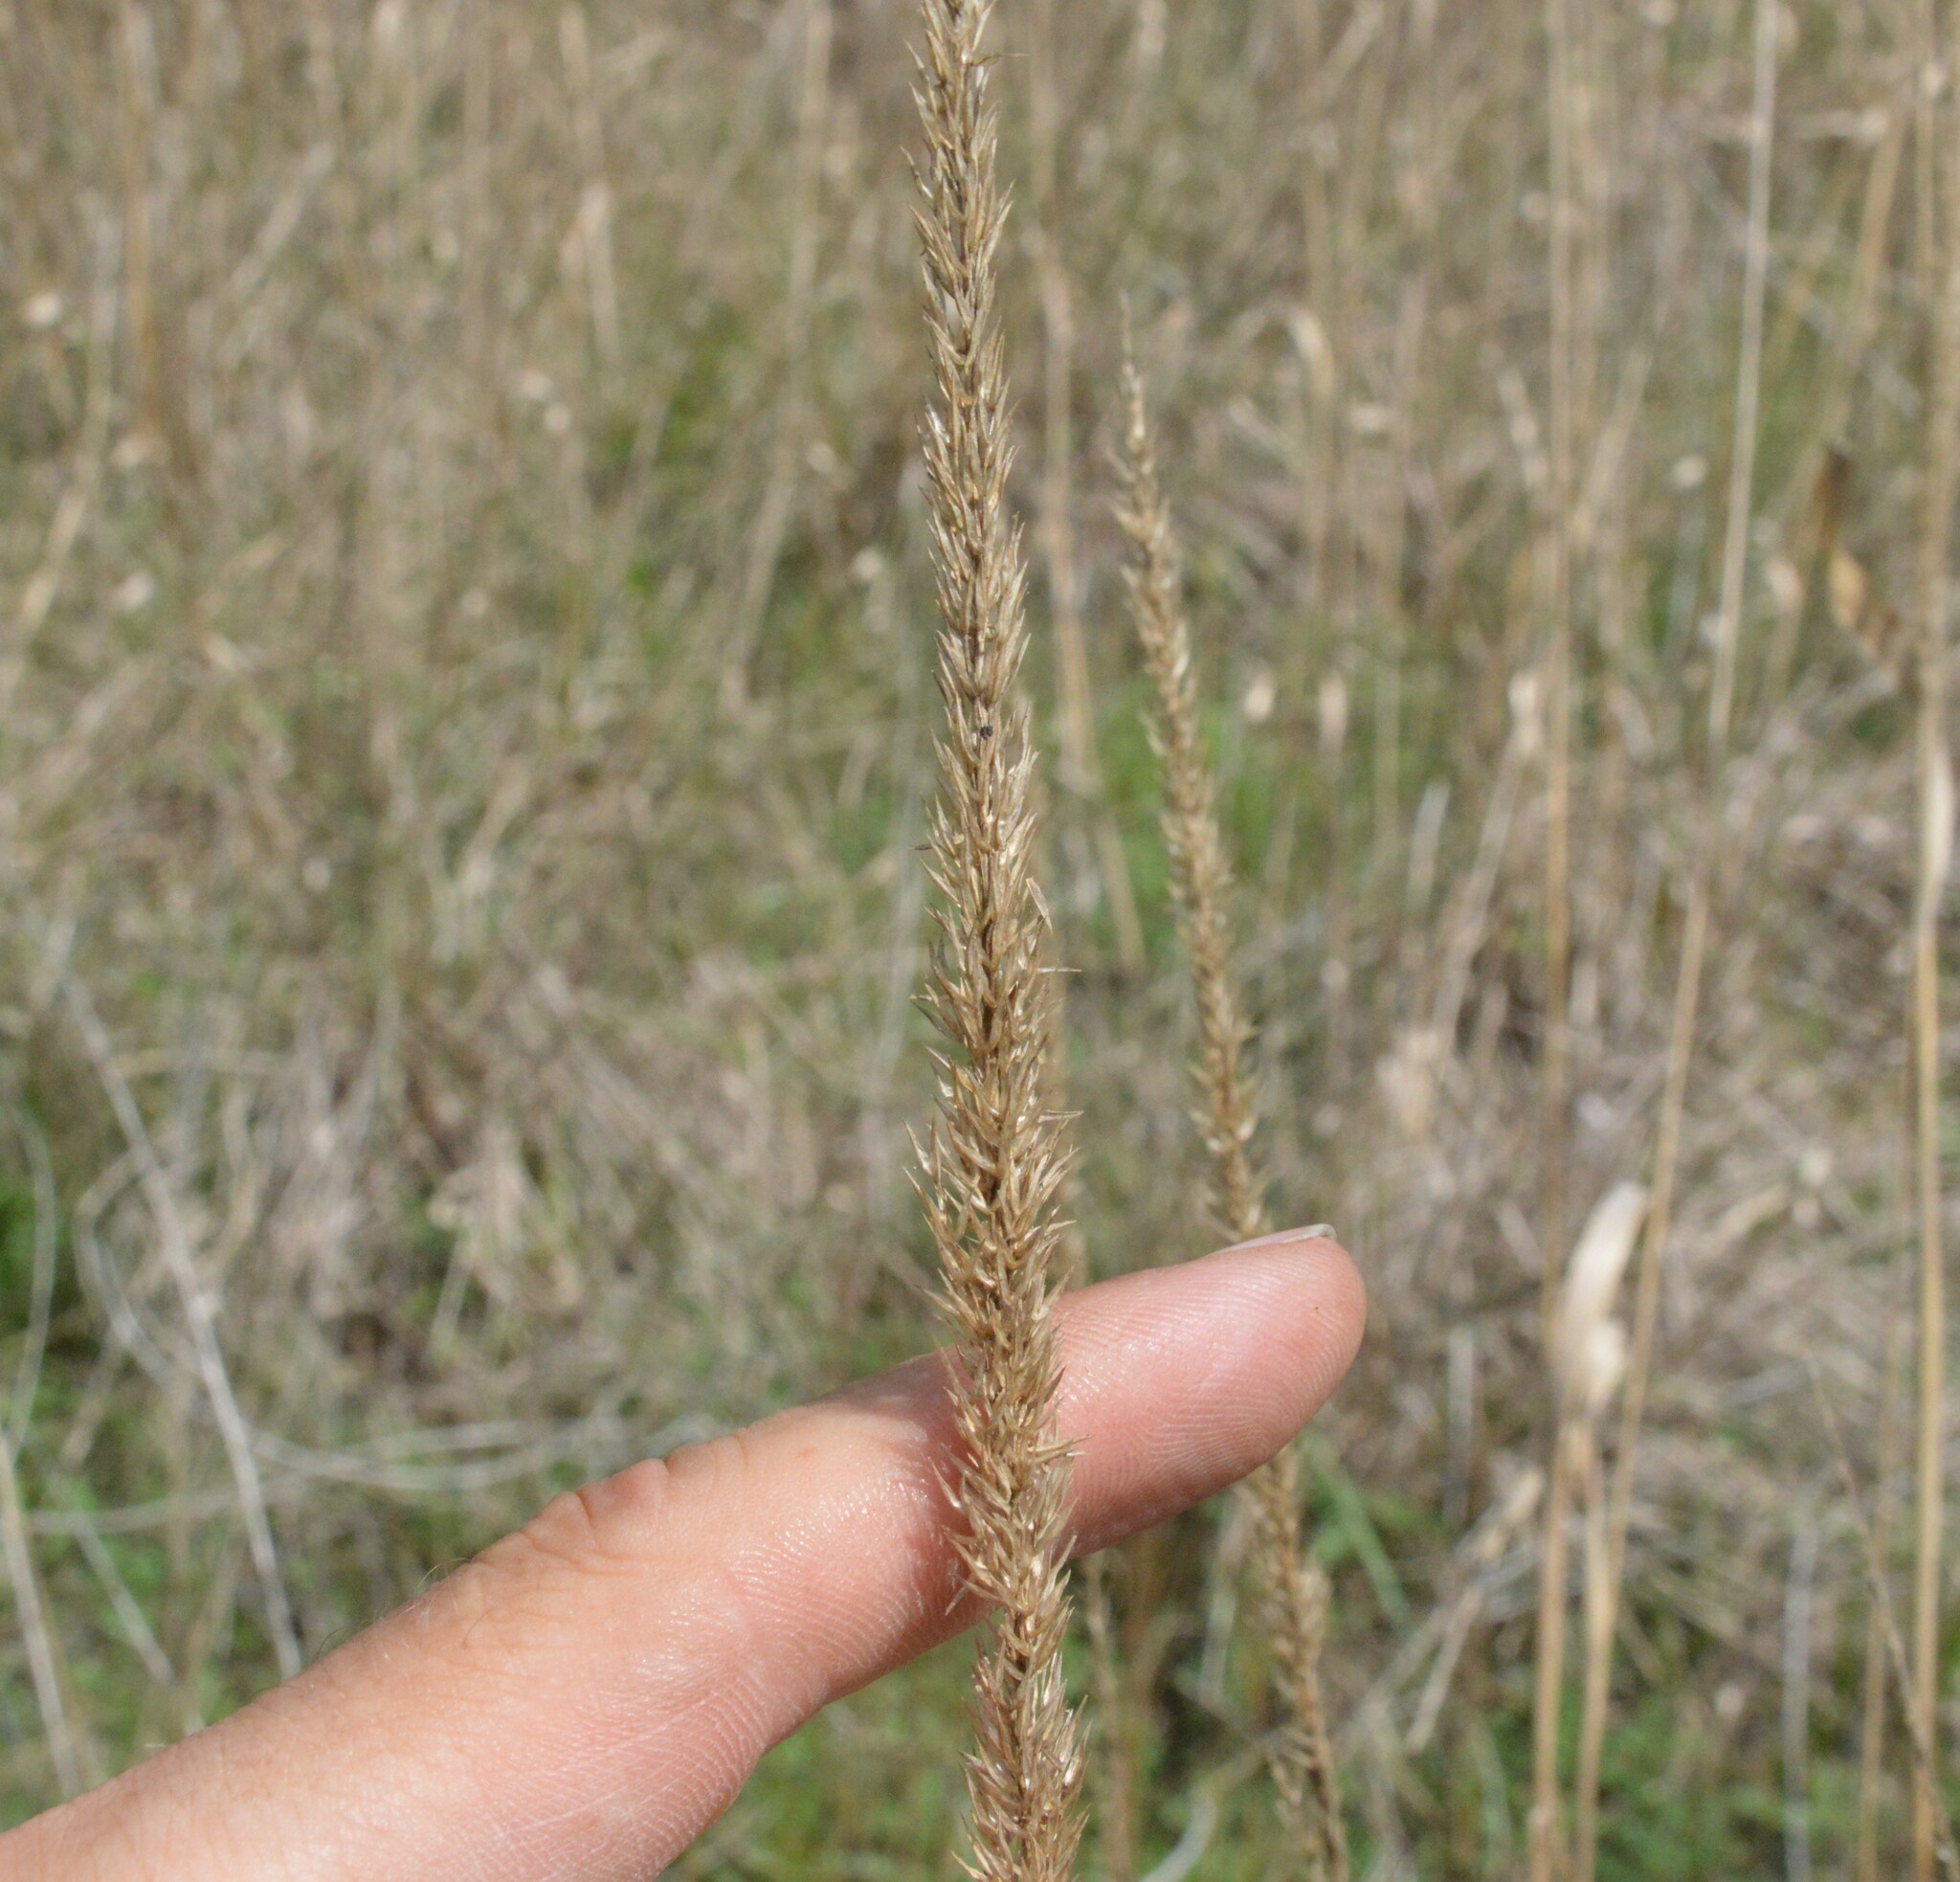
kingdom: Plantae
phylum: Tracheophyta
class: Liliopsida
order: Poales
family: Poaceae
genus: Tridens
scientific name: Tridens strictus
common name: Long-spike tridens
